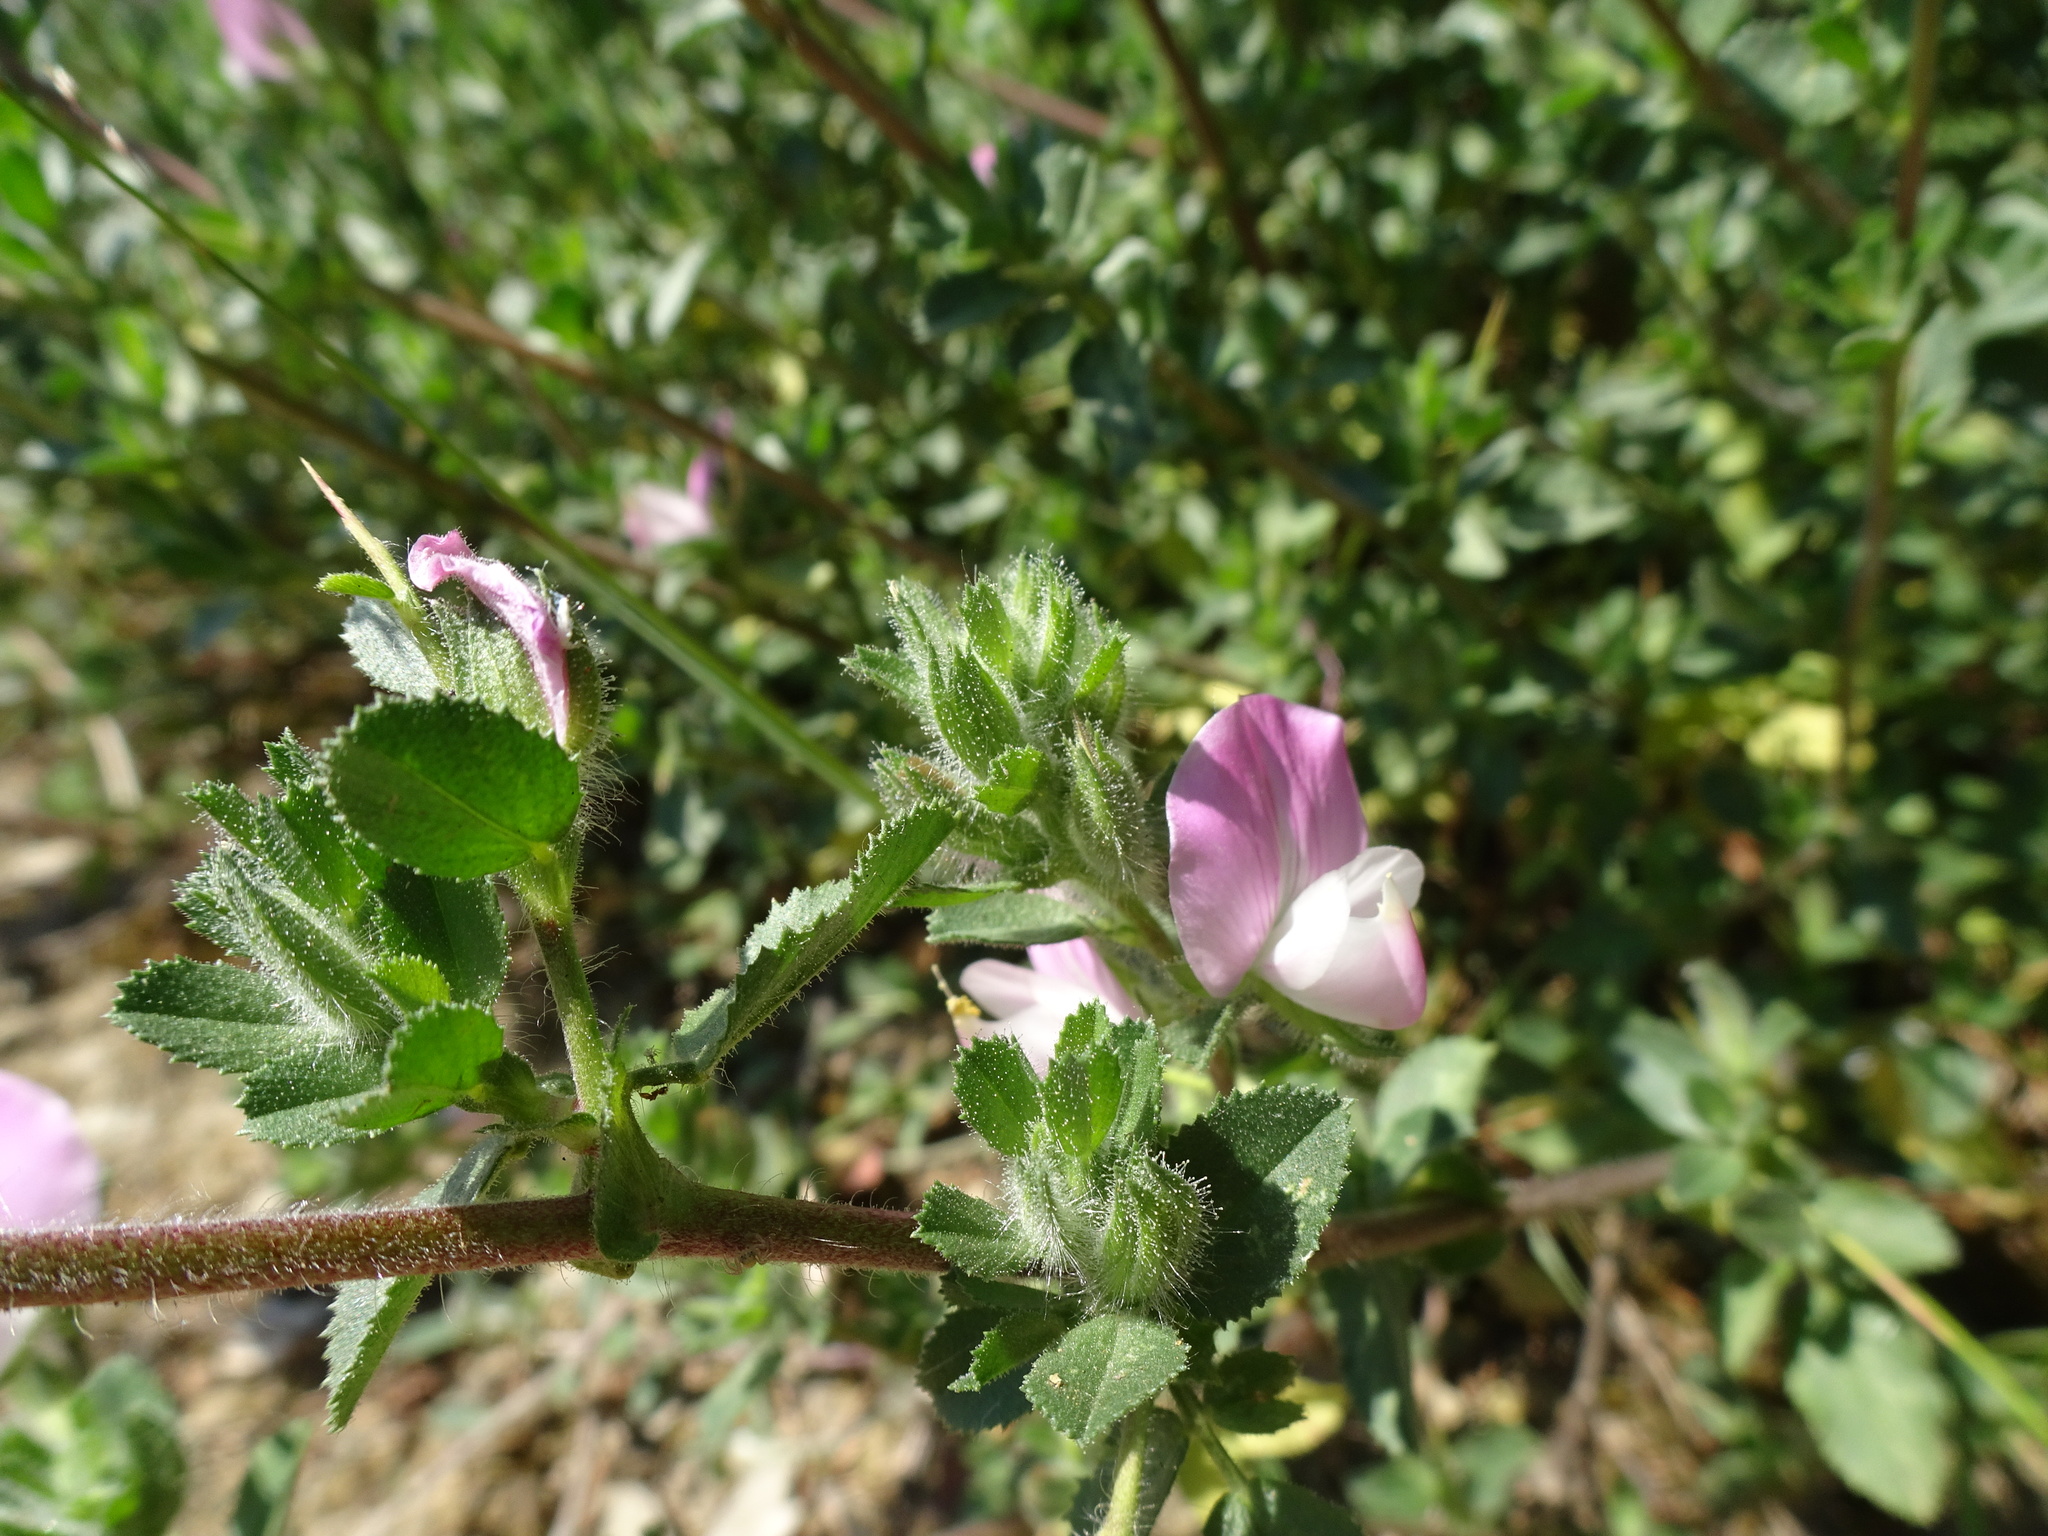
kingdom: Plantae
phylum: Tracheophyta
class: Magnoliopsida
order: Fabales
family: Fabaceae
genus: Ononis
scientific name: Ononis spinosa
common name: Spiny restharrow
